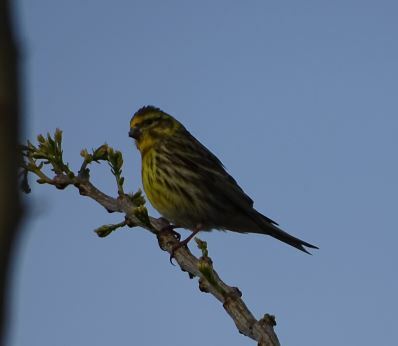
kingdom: Animalia
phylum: Chordata
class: Aves
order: Passeriformes
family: Fringillidae
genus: Serinus
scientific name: Serinus serinus
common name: European serin
